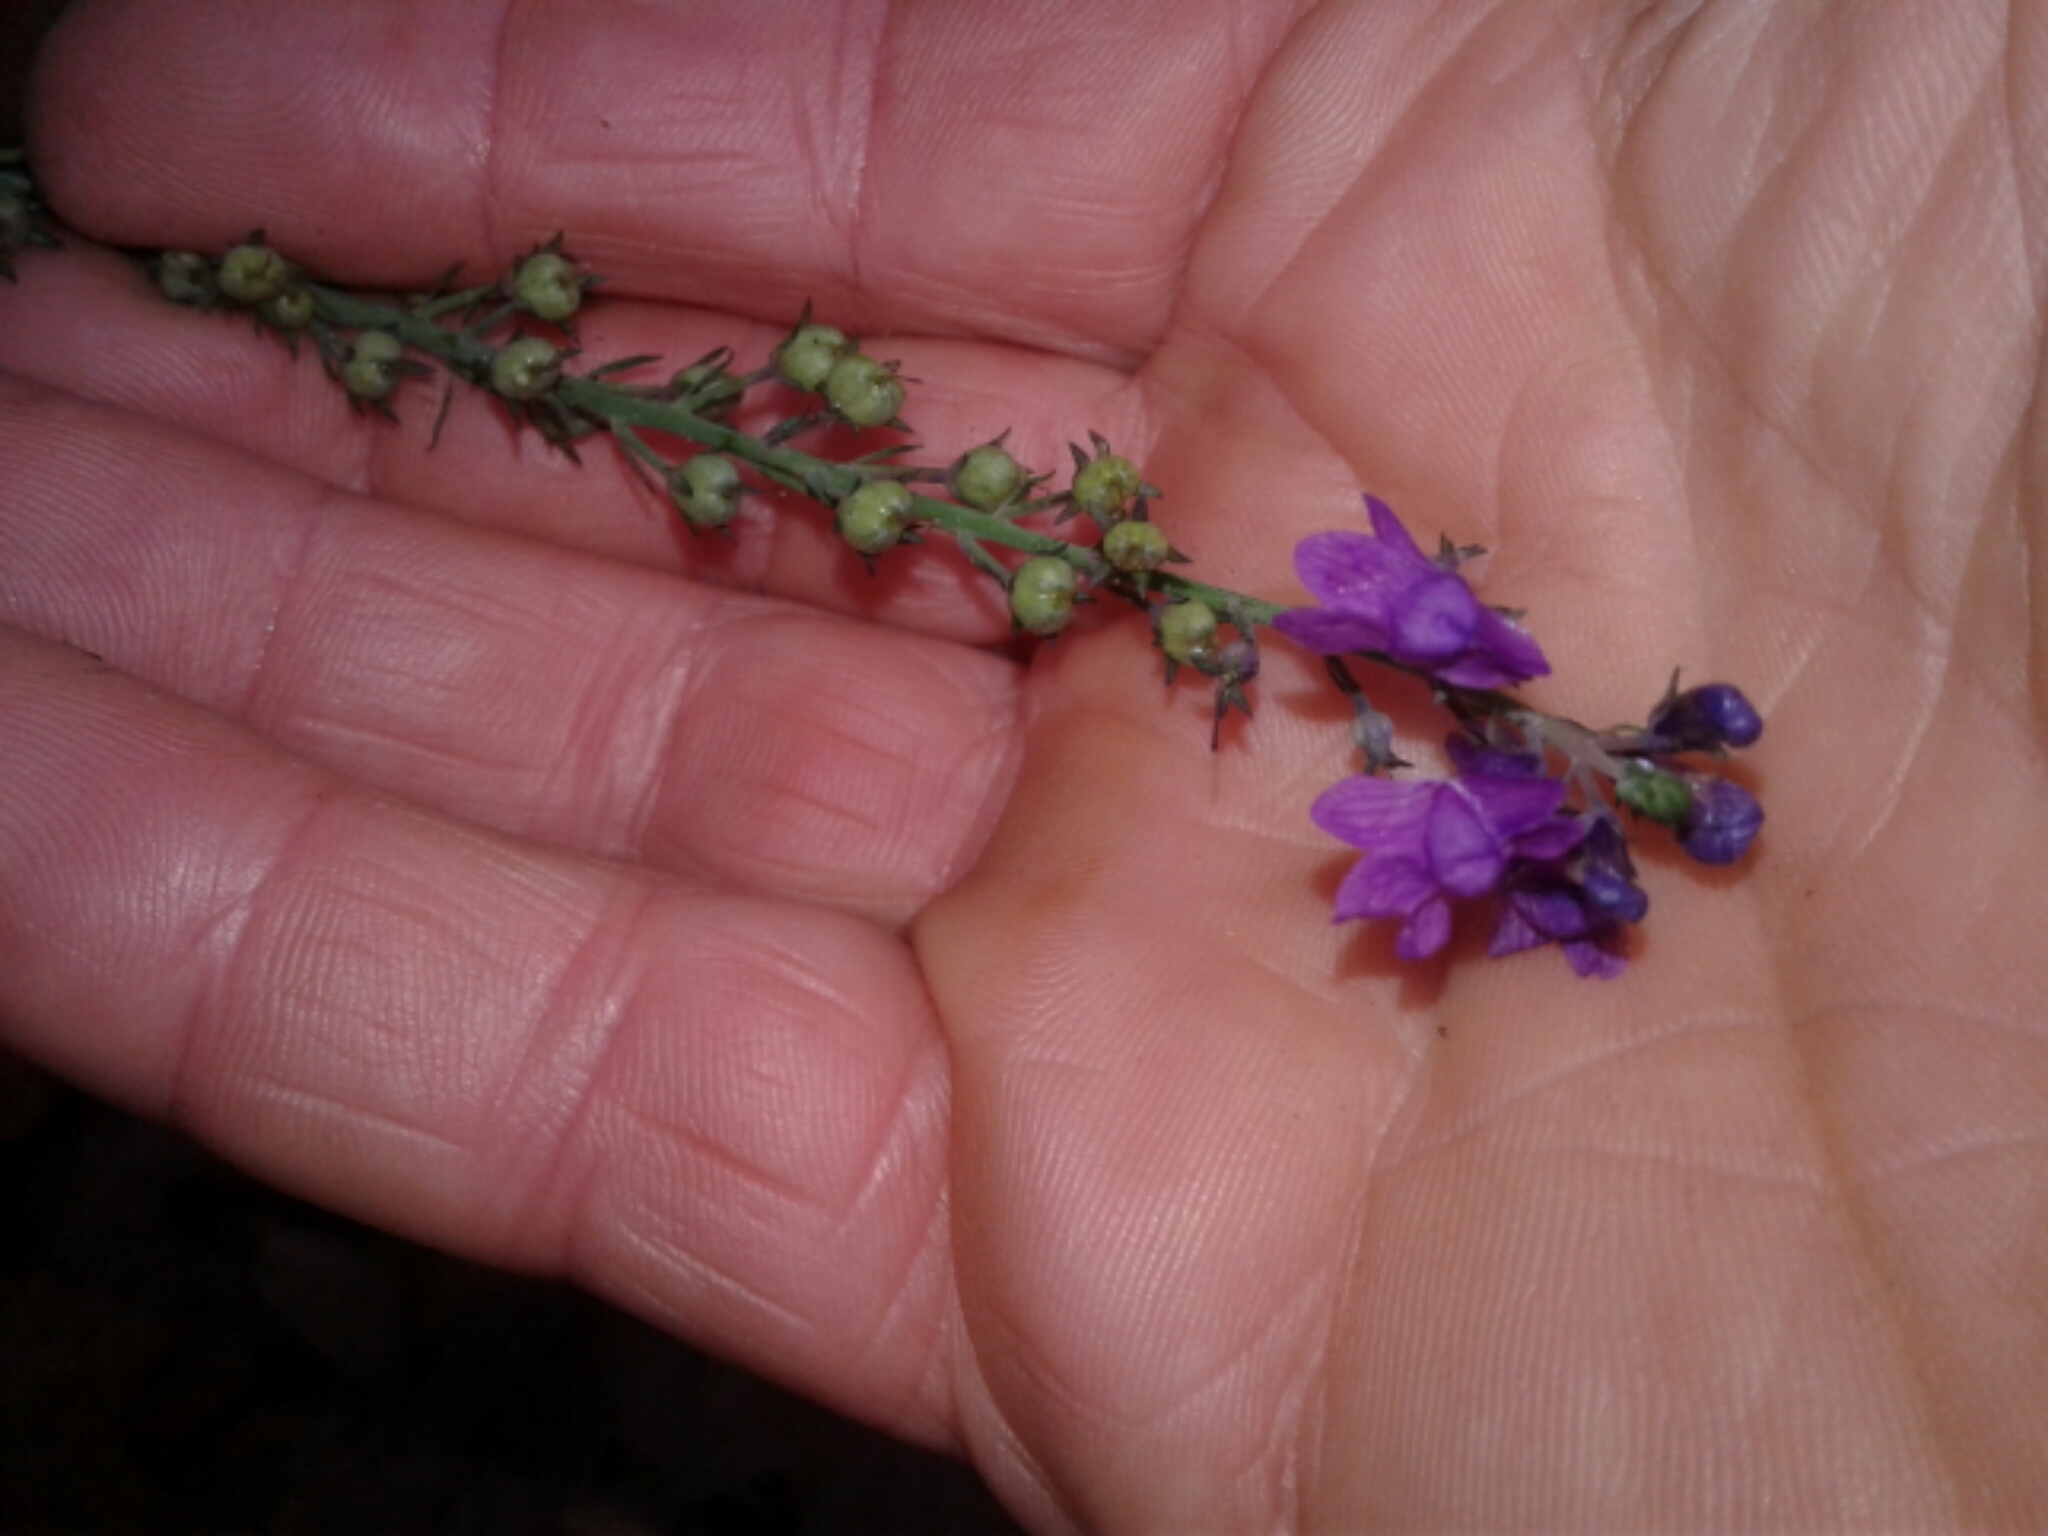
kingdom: Plantae
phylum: Tracheophyta
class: Magnoliopsida
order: Lamiales
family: Plantaginaceae
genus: Linaria
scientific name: Linaria purpurea
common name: Purple toadflax
